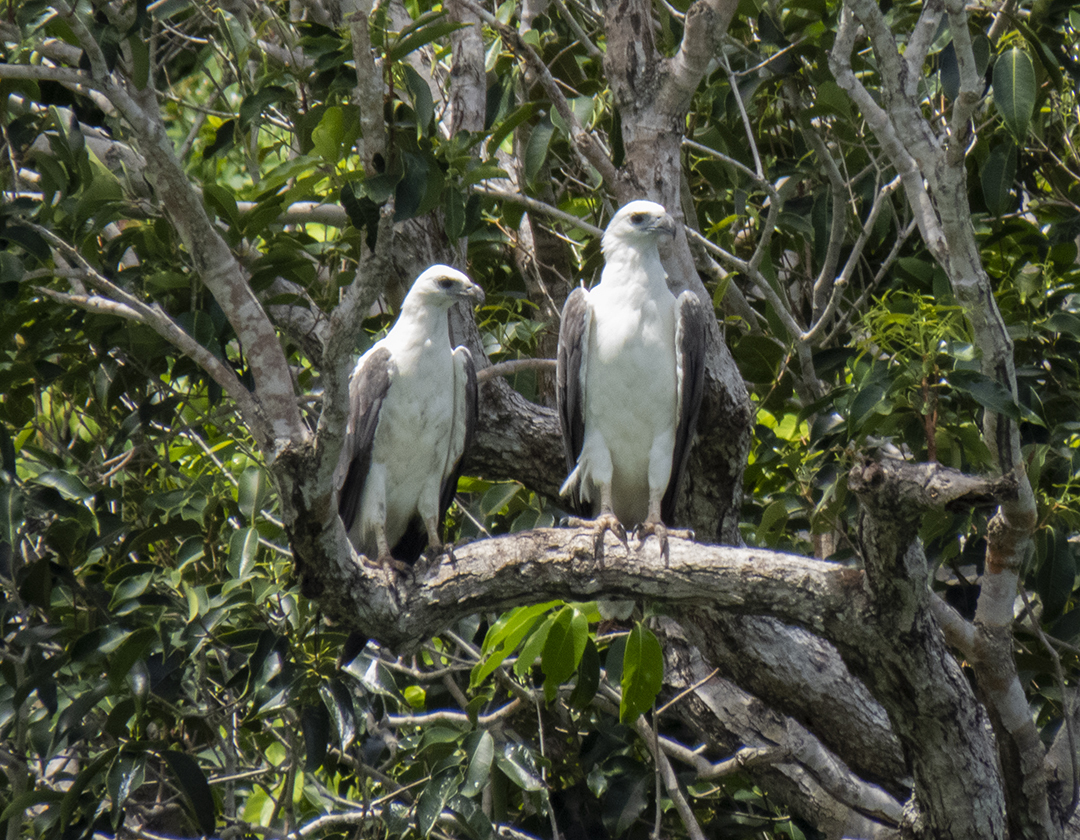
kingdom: Animalia
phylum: Chordata
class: Aves
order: Accipitriformes
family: Accipitridae
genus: Haliaeetus
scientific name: Haliaeetus leucogaster
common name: White-bellied sea eagle
